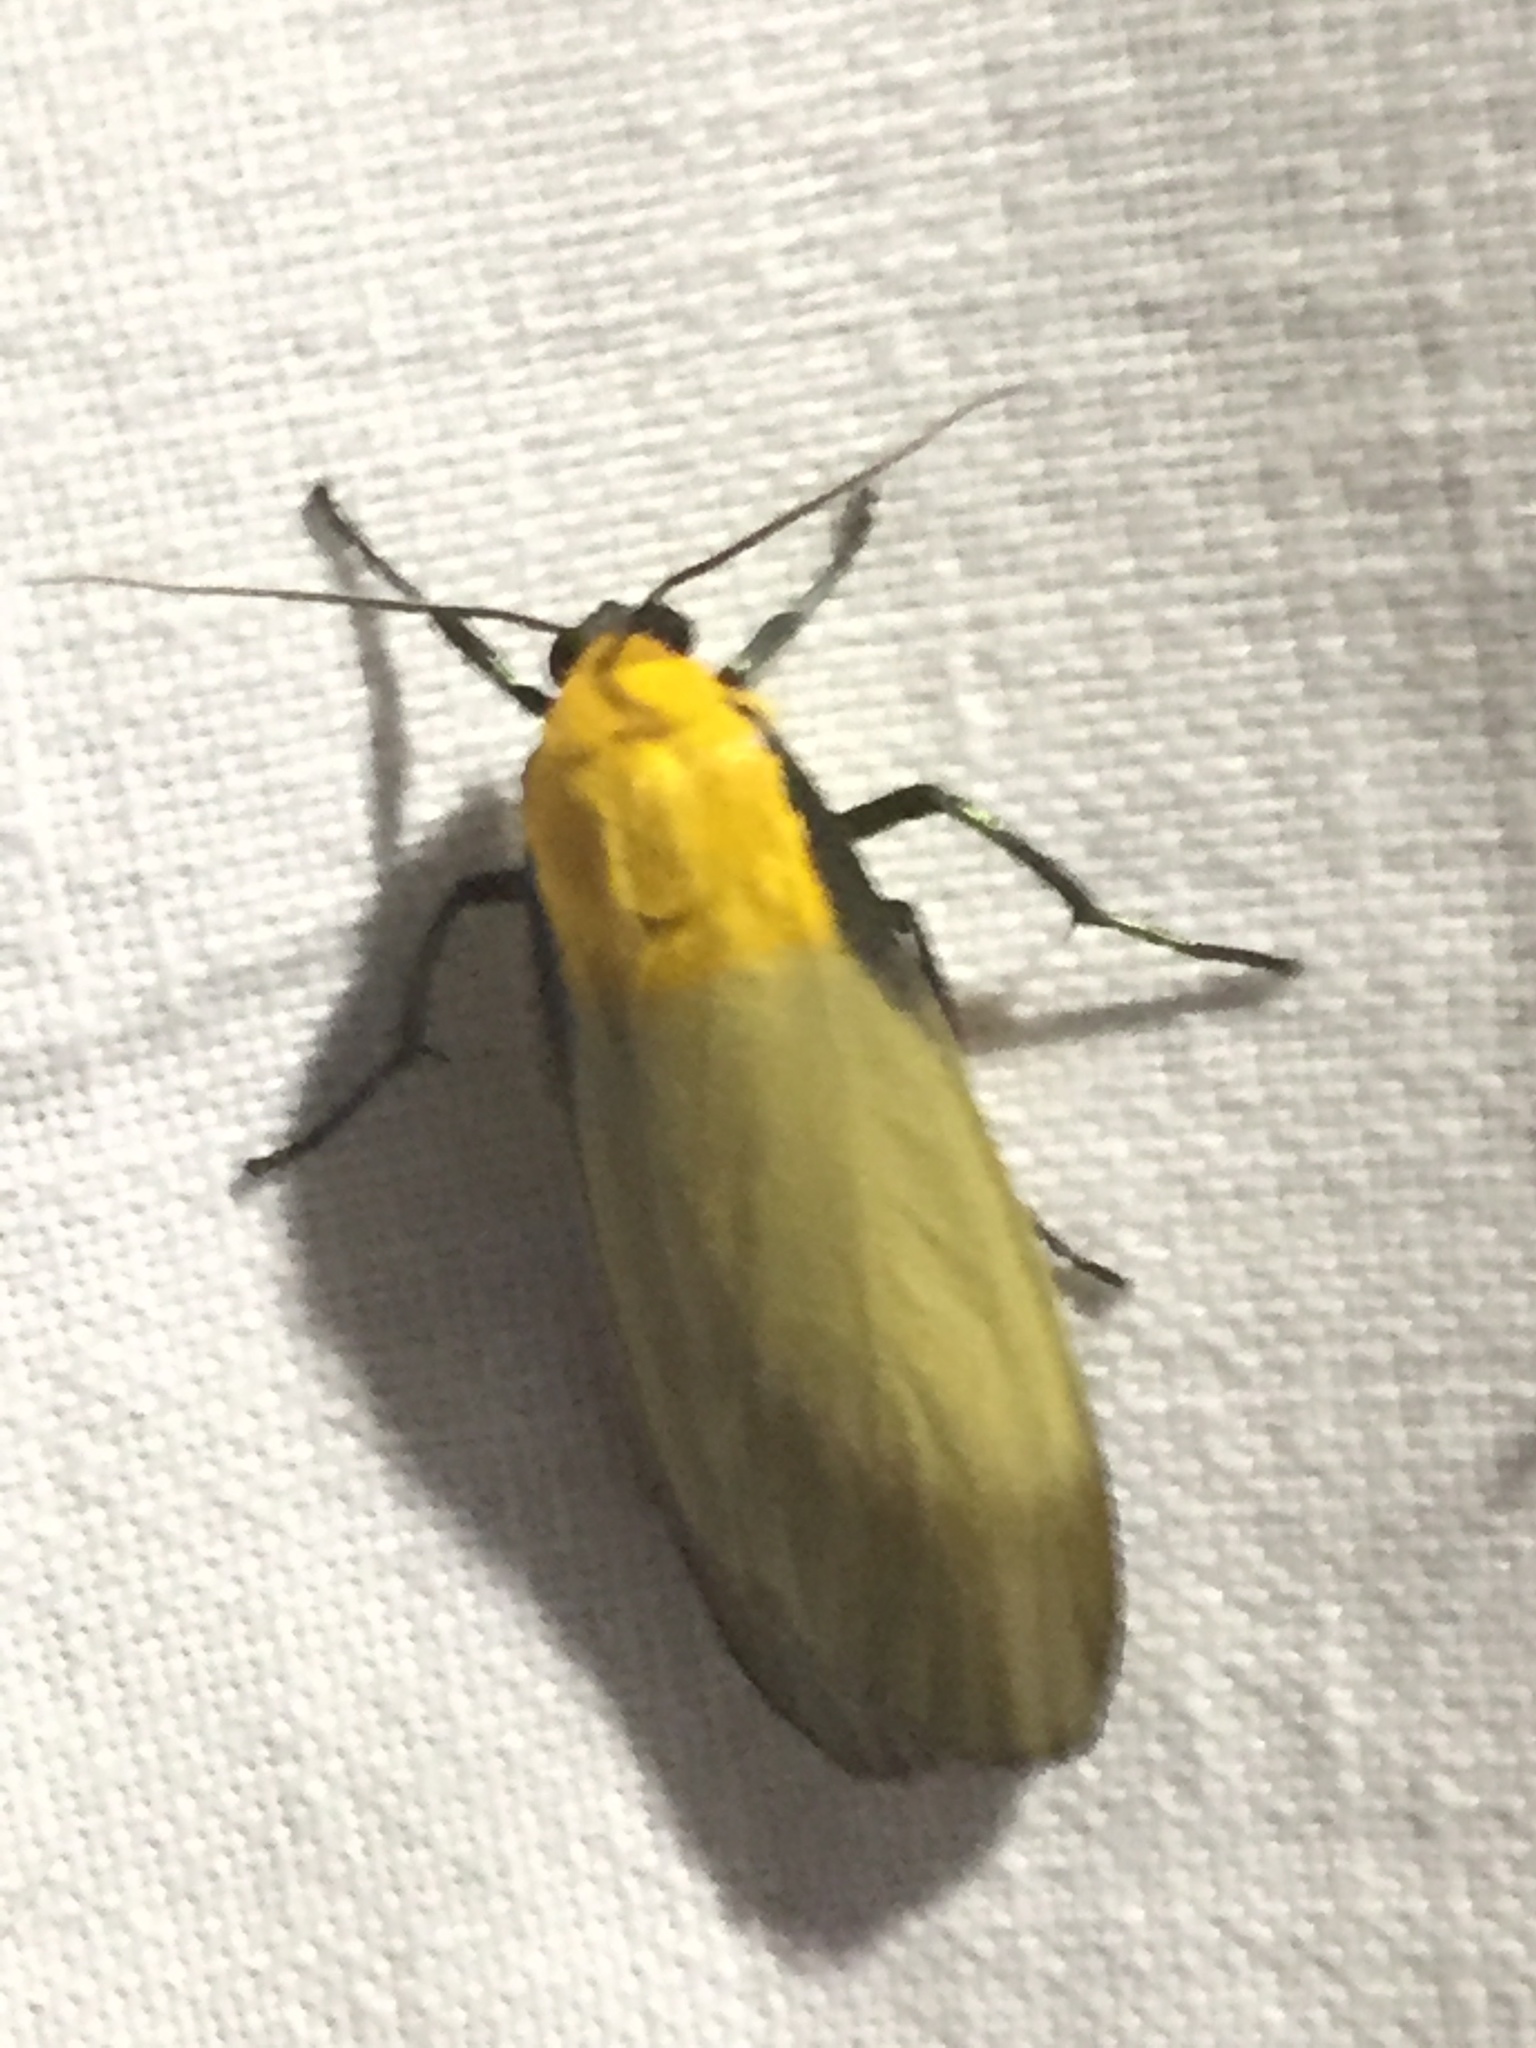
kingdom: Animalia
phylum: Arthropoda
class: Insecta
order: Lepidoptera
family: Erebidae
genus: Lithosia
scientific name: Lithosia quadra
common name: Four-spotted footman
